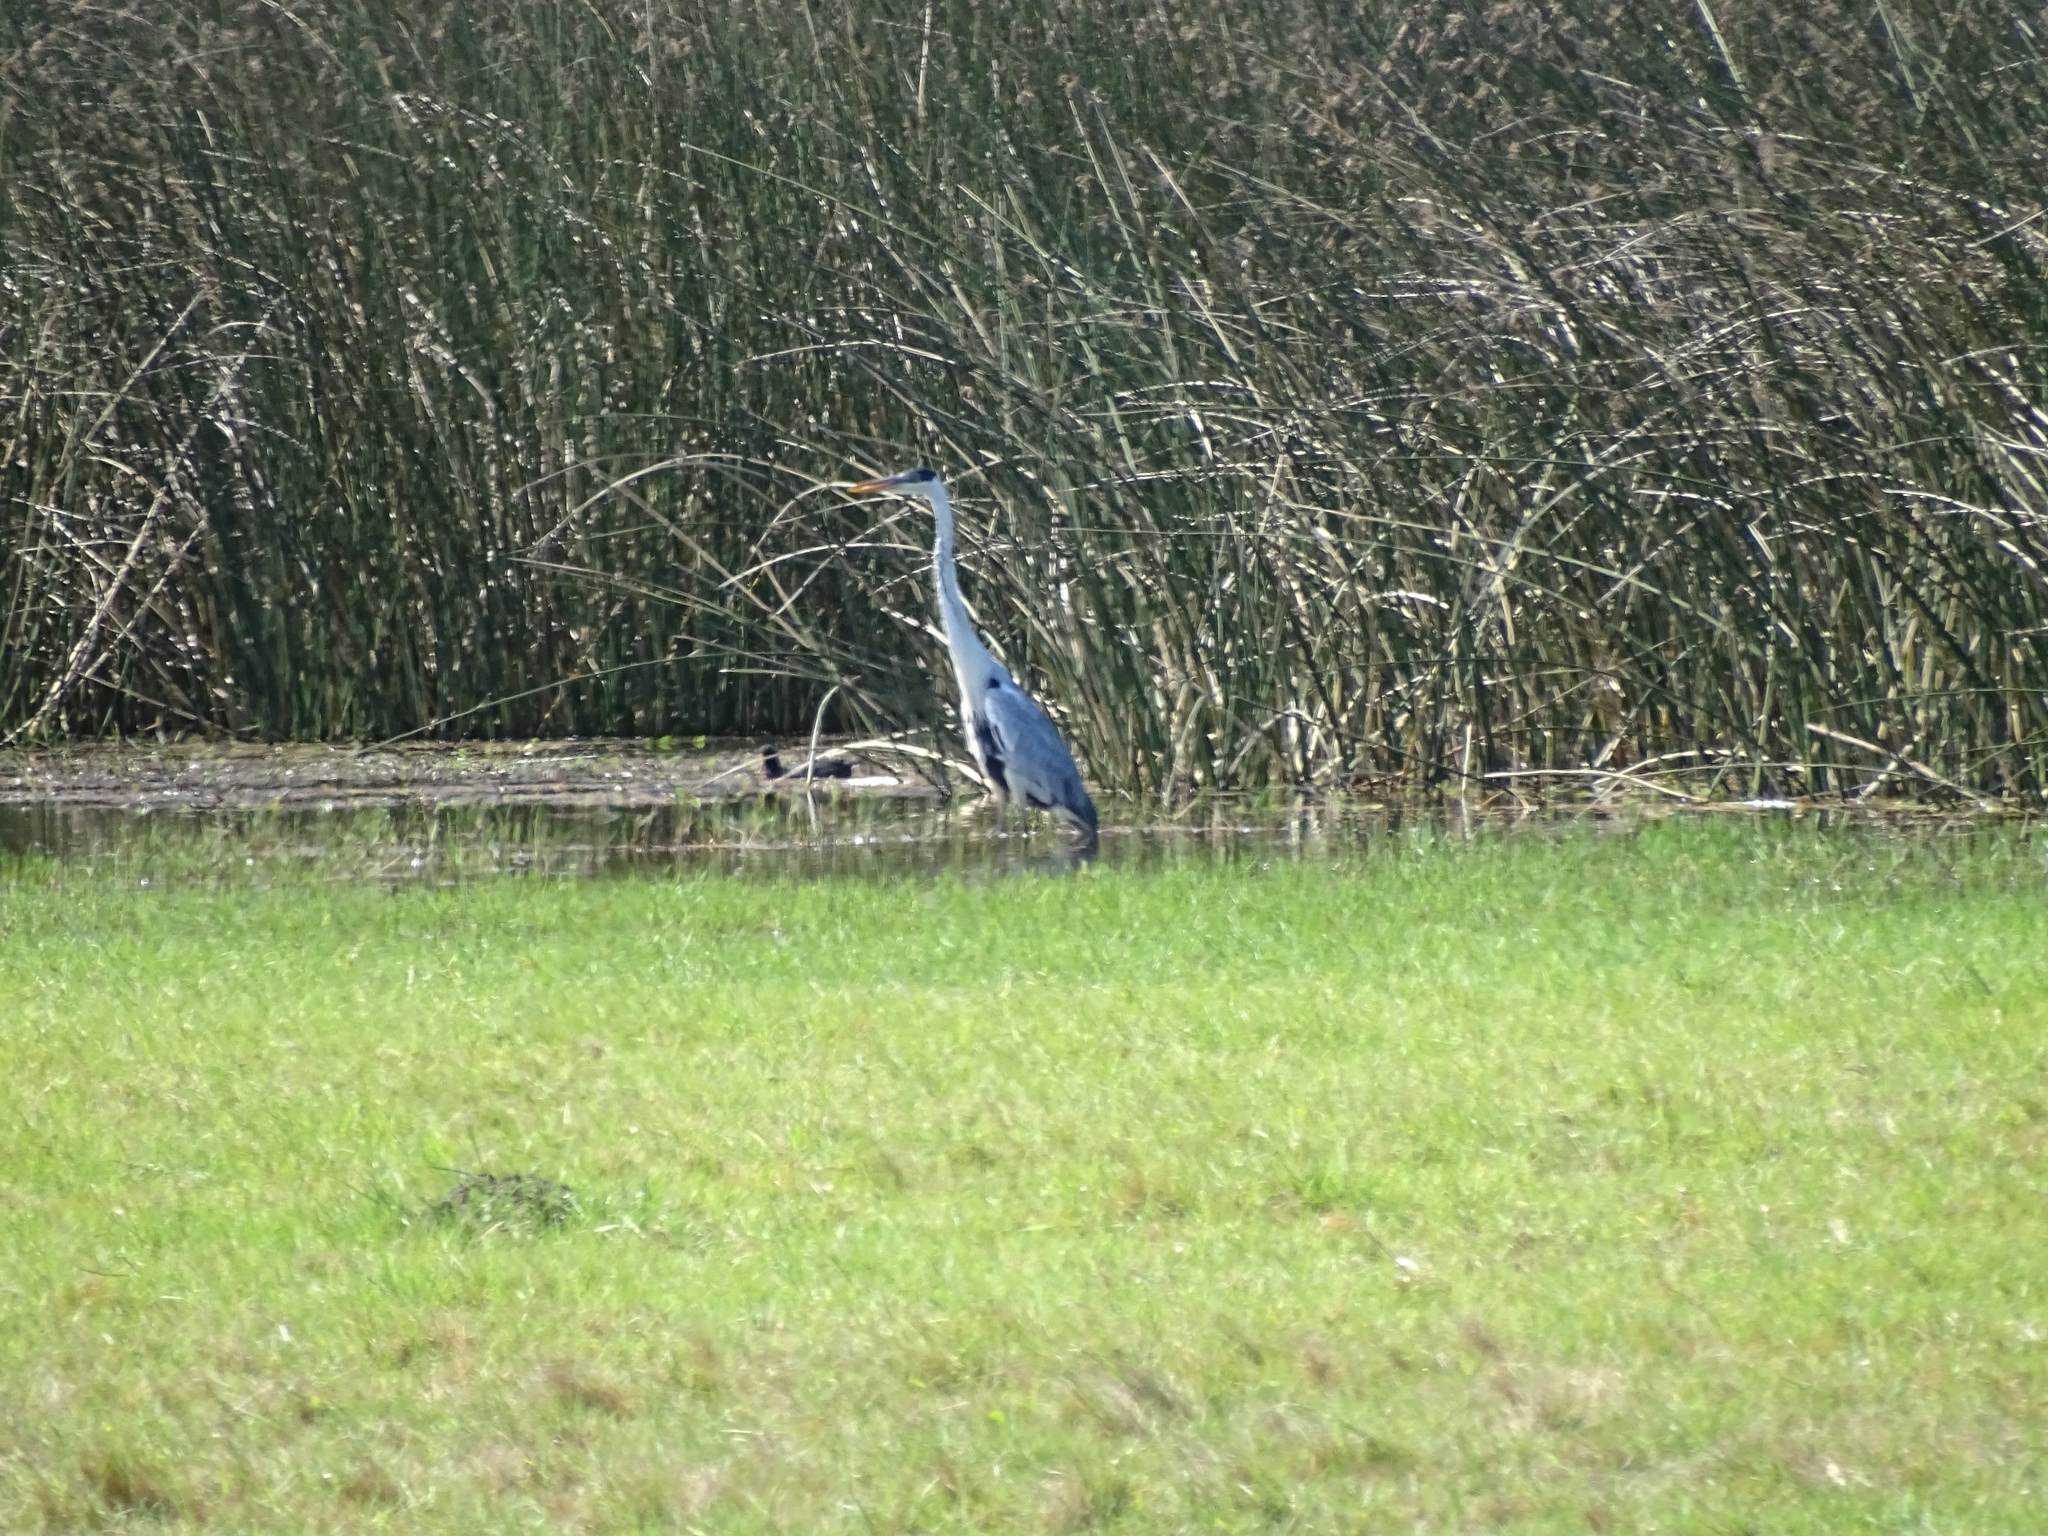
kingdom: Animalia
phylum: Chordata
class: Aves
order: Pelecaniformes
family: Ardeidae
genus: Ardea
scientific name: Ardea cocoi
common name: Cocoi heron
